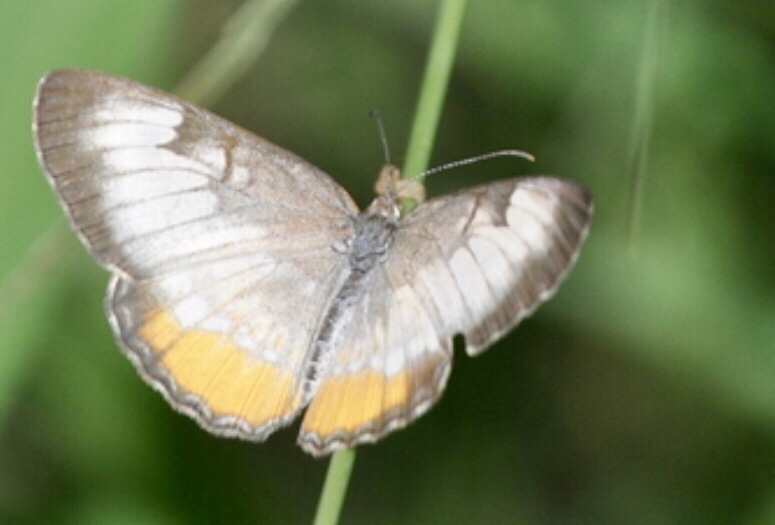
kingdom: Animalia
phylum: Arthropoda
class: Insecta
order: Lepidoptera
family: Nymphalidae
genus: Mestra
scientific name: Mestra amymone
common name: Common mestra
